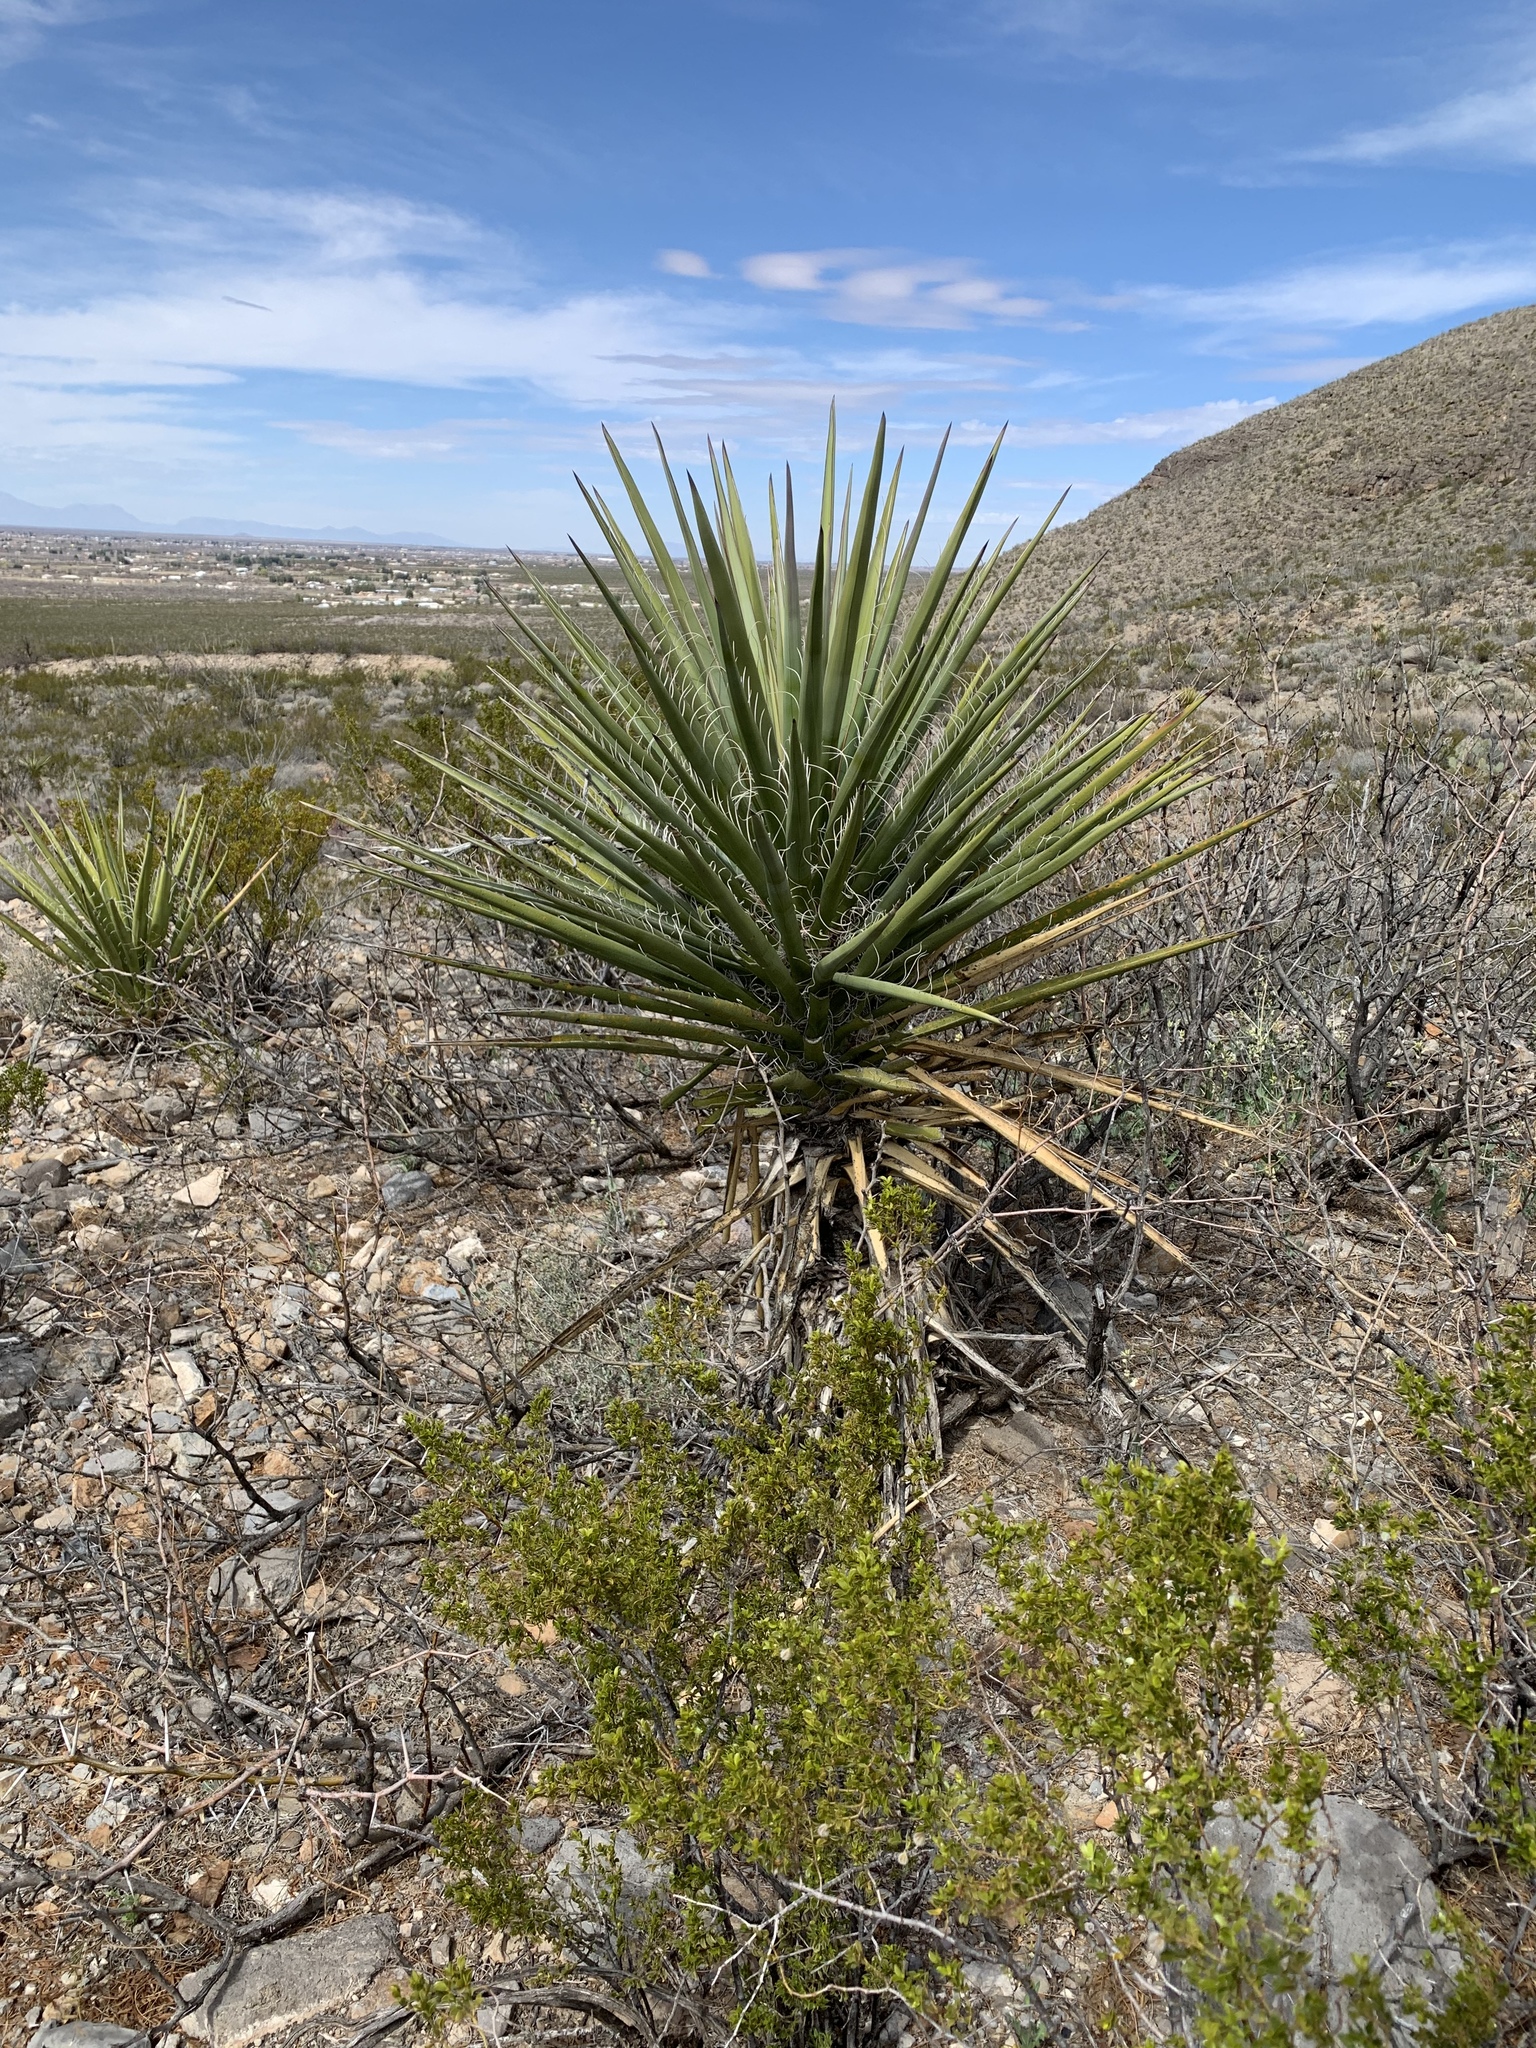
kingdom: Plantae
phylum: Tracheophyta
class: Liliopsida
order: Asparagales
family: Asparagaceae
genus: Yucca
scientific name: Yucca treculiana
